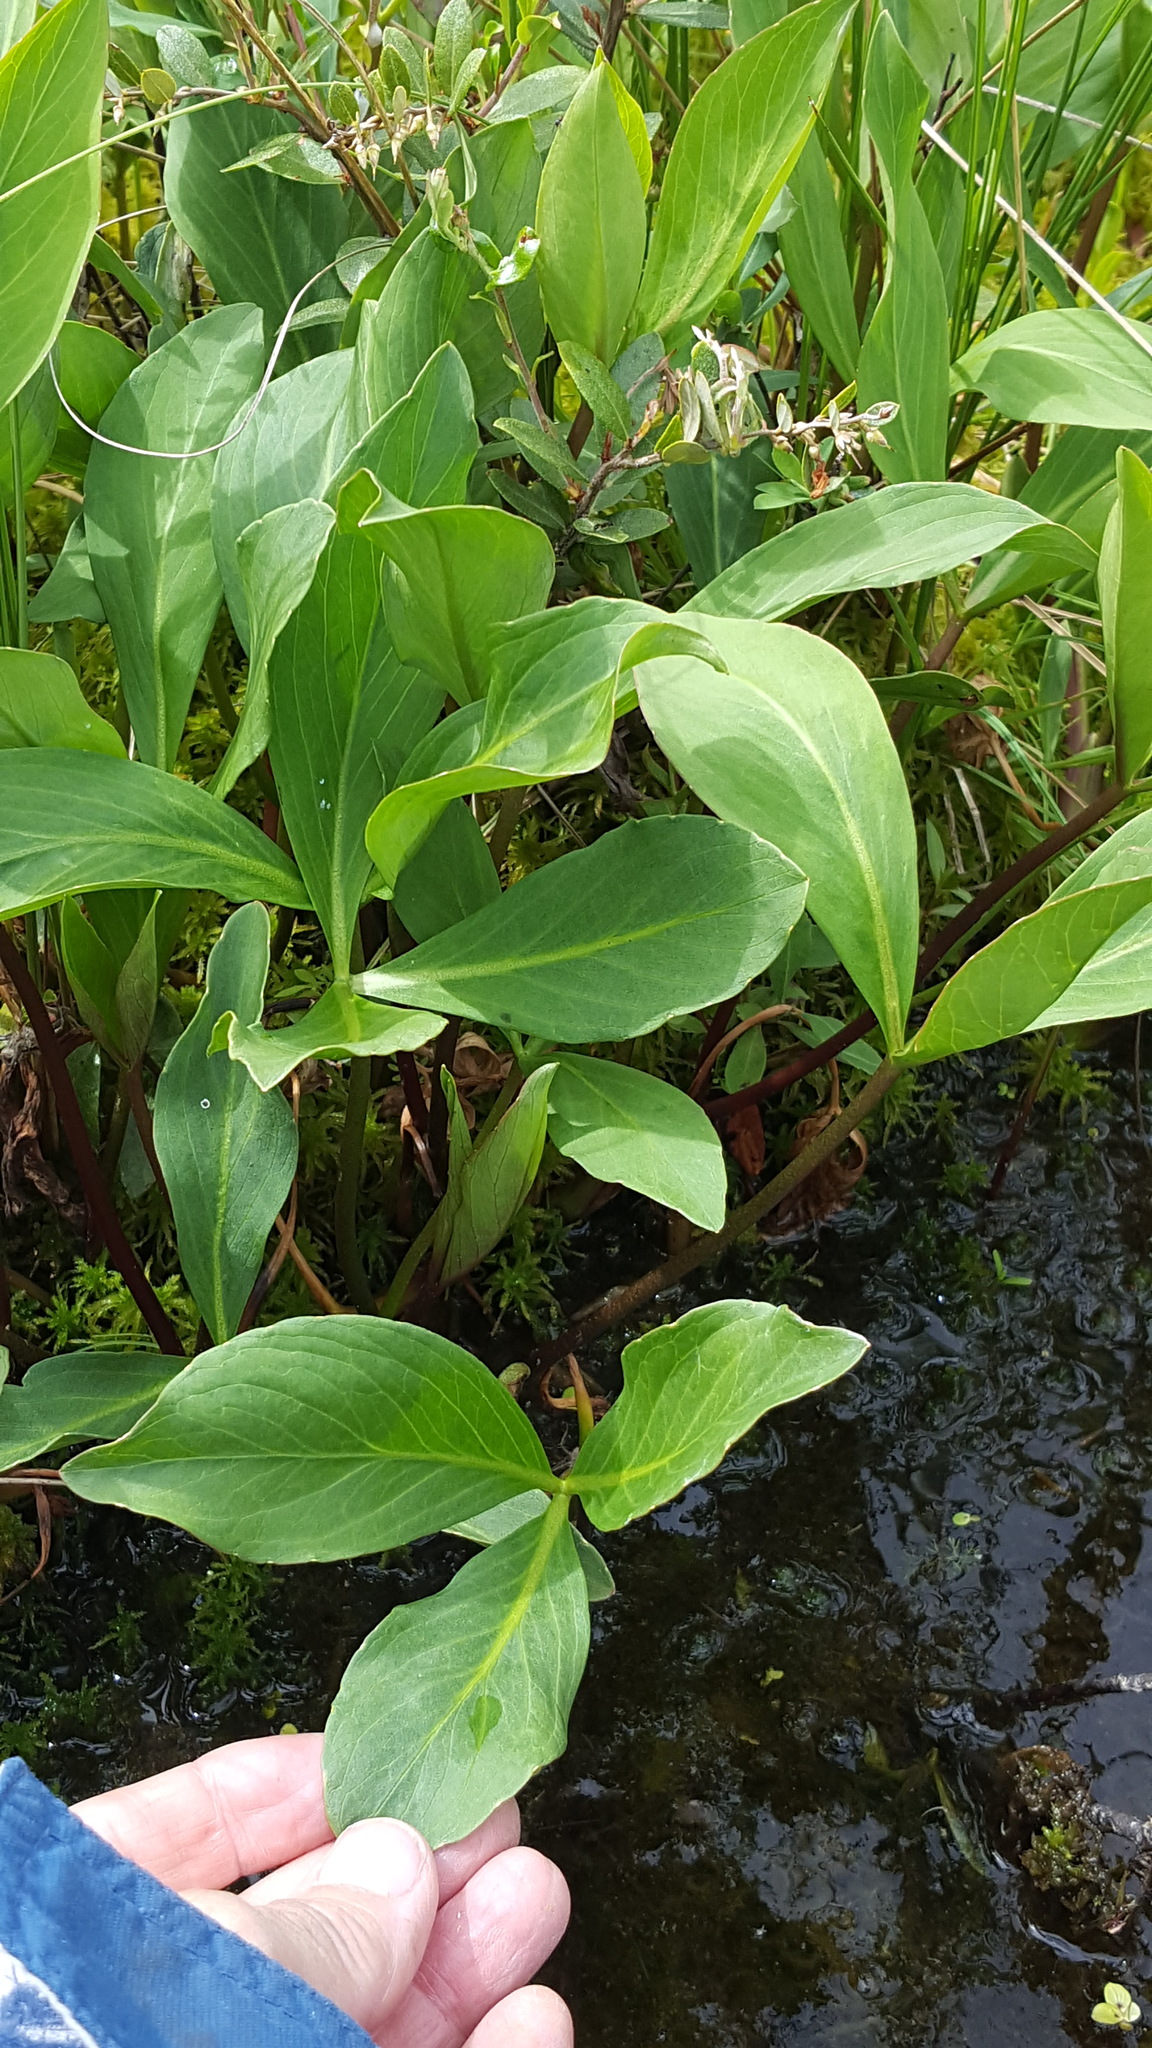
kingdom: Plantae
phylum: Tracheophyta
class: Magnoliopsida
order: Asterales
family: Menyanthaceae
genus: Menyanthes
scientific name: Menyanthes trifoliata
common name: Bogbean
